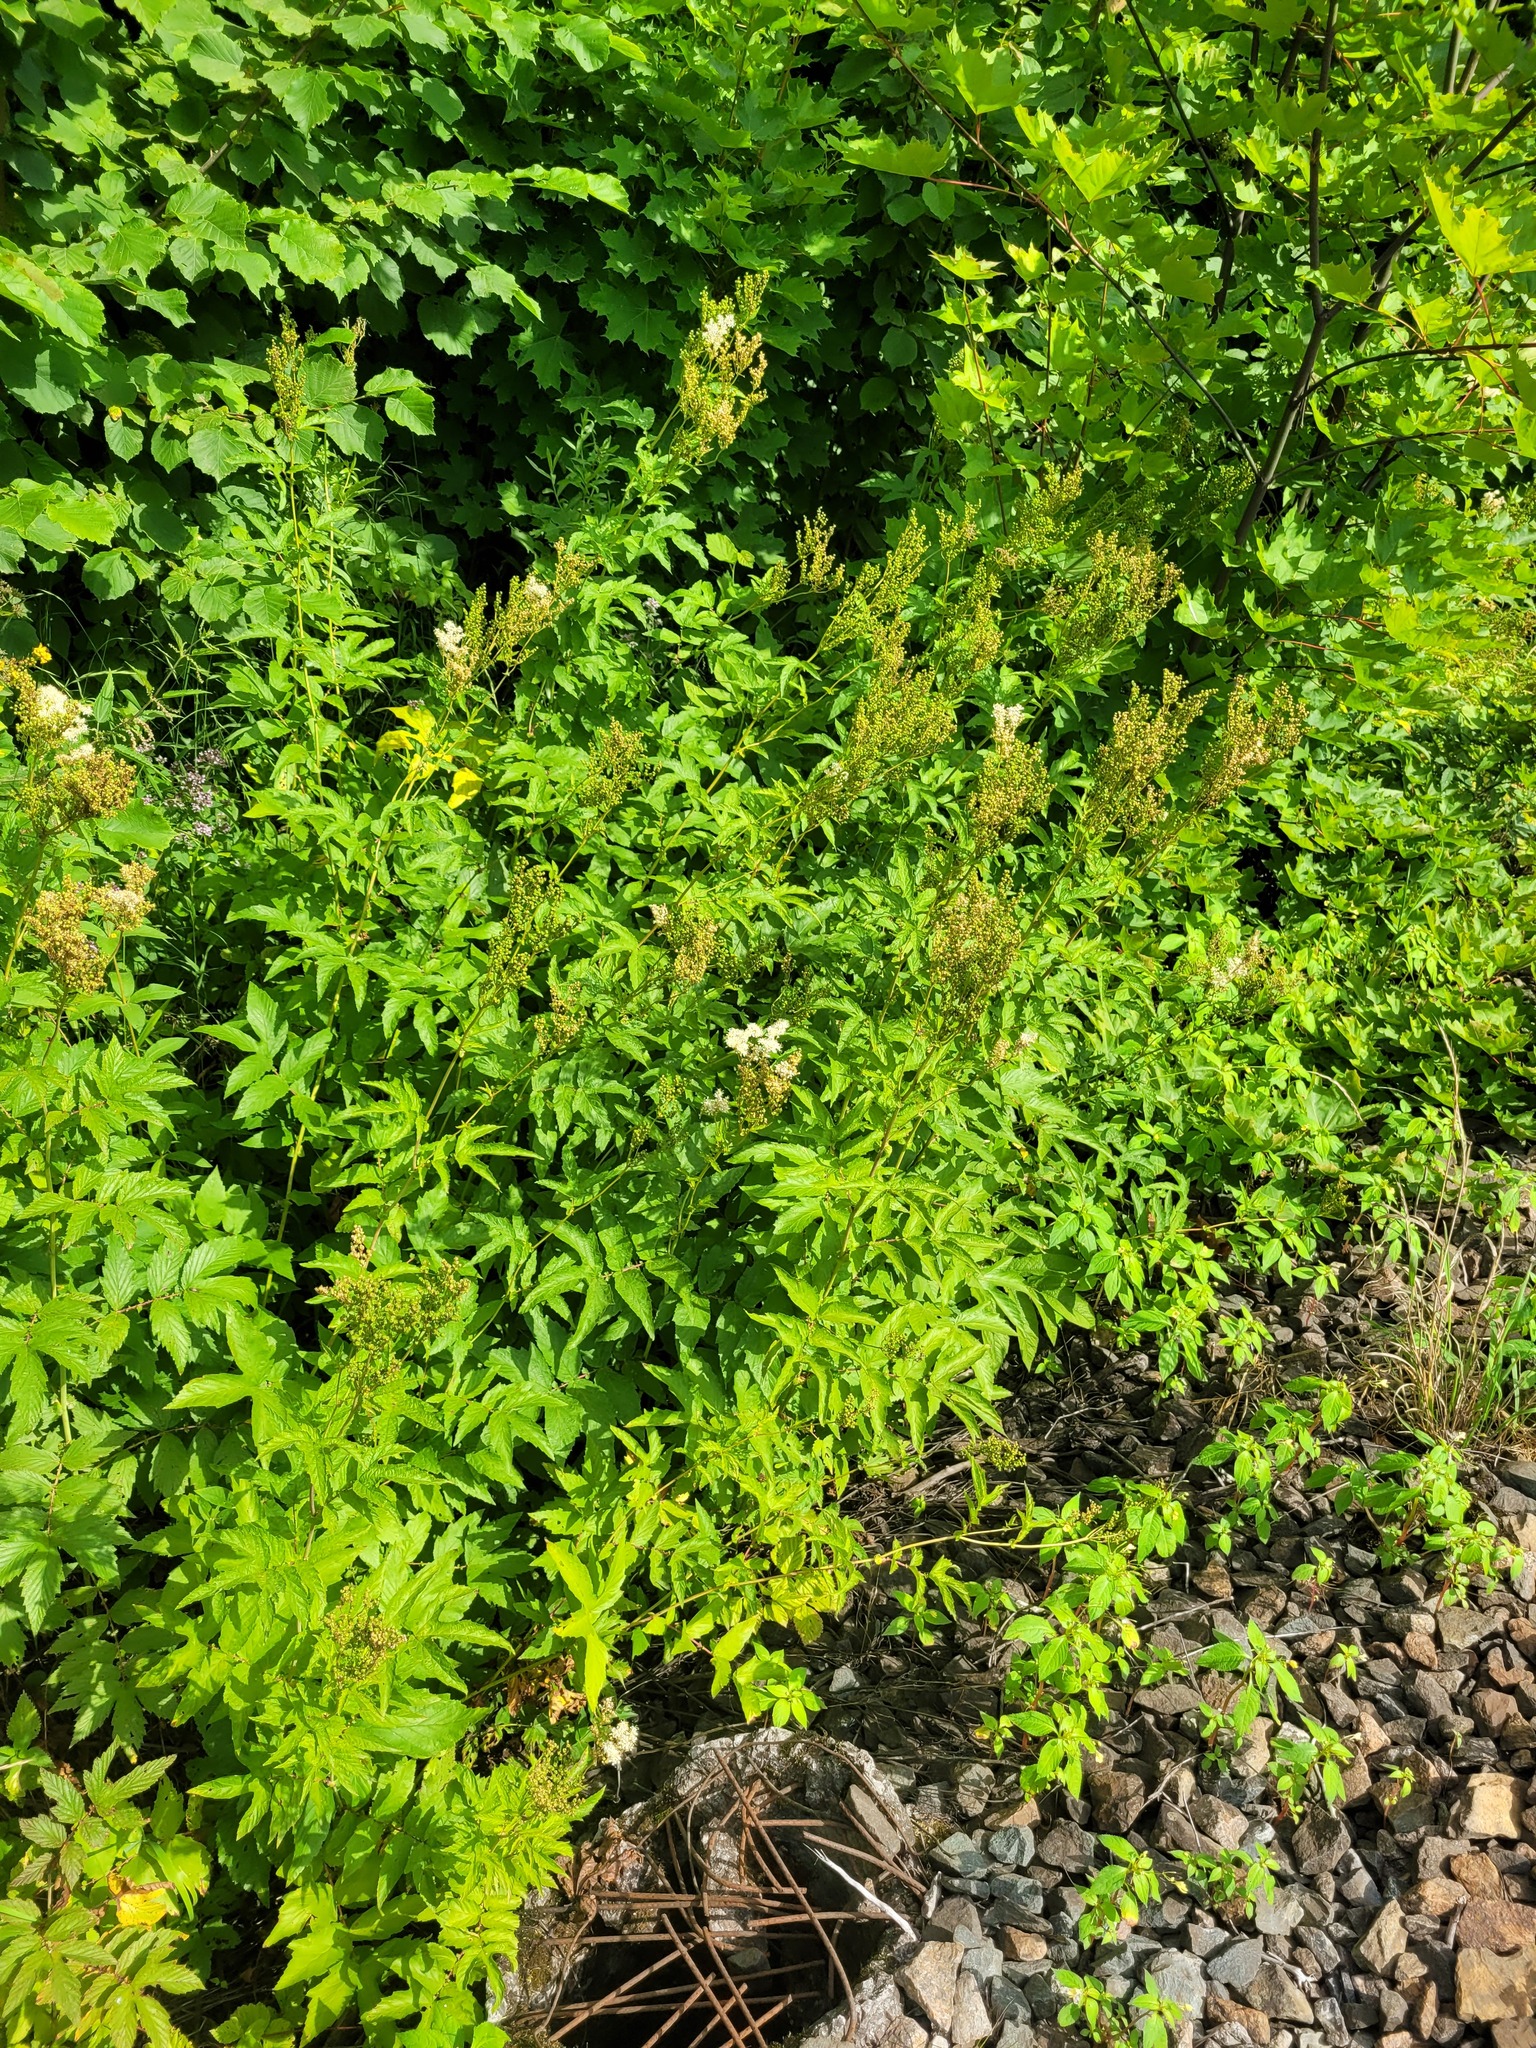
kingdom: Plantae
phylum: Tracheophyta
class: Magnoliopsida
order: Rosales
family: Rosaceae
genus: Filipendula
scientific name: Filipendula ulmaria
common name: Meadowsweet
